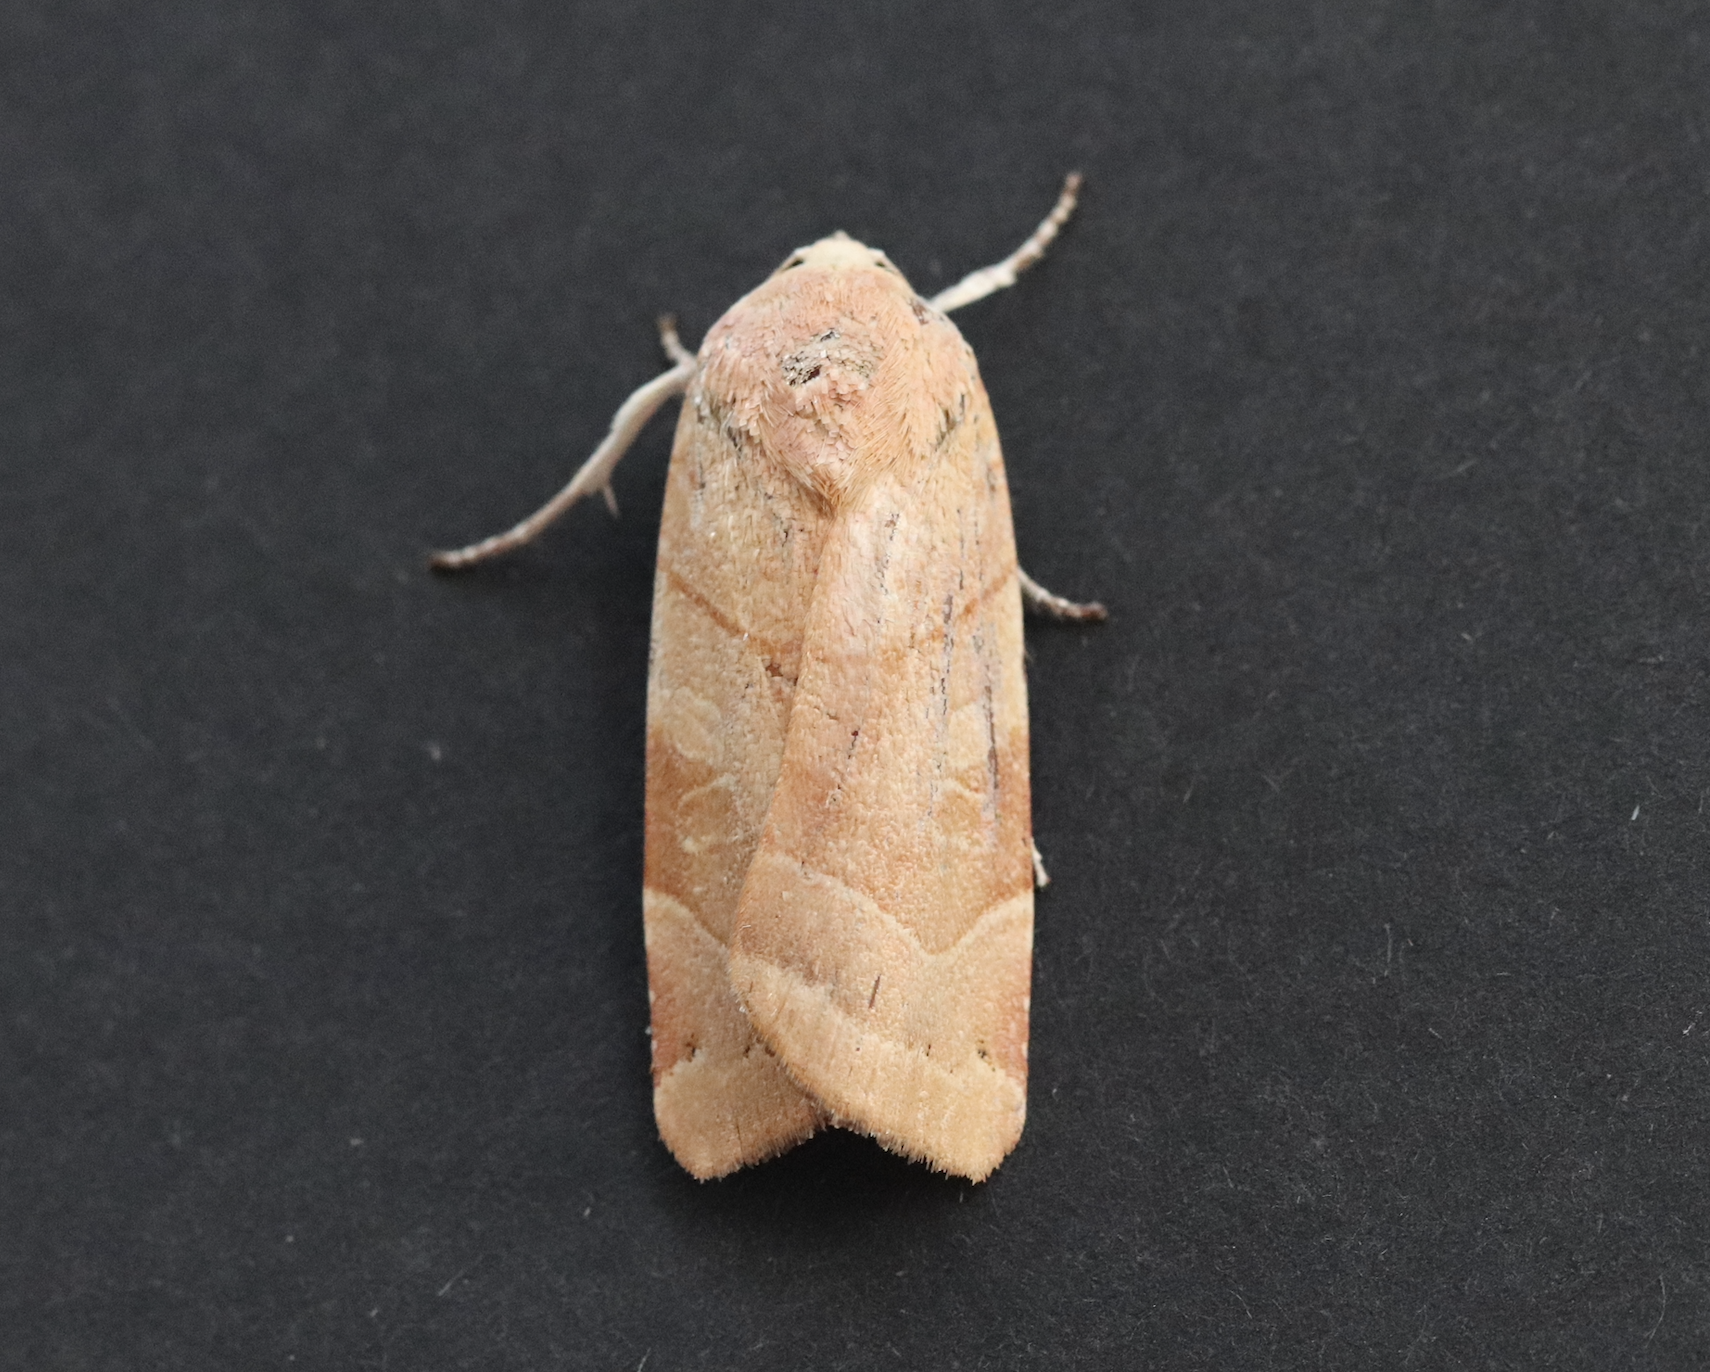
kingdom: Animalia
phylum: Arthropoda
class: Insecta
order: Lepidoptera
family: Noctuidae
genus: Noctua
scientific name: Noctua fimbriata
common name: Broad-bordered yellow underwing
